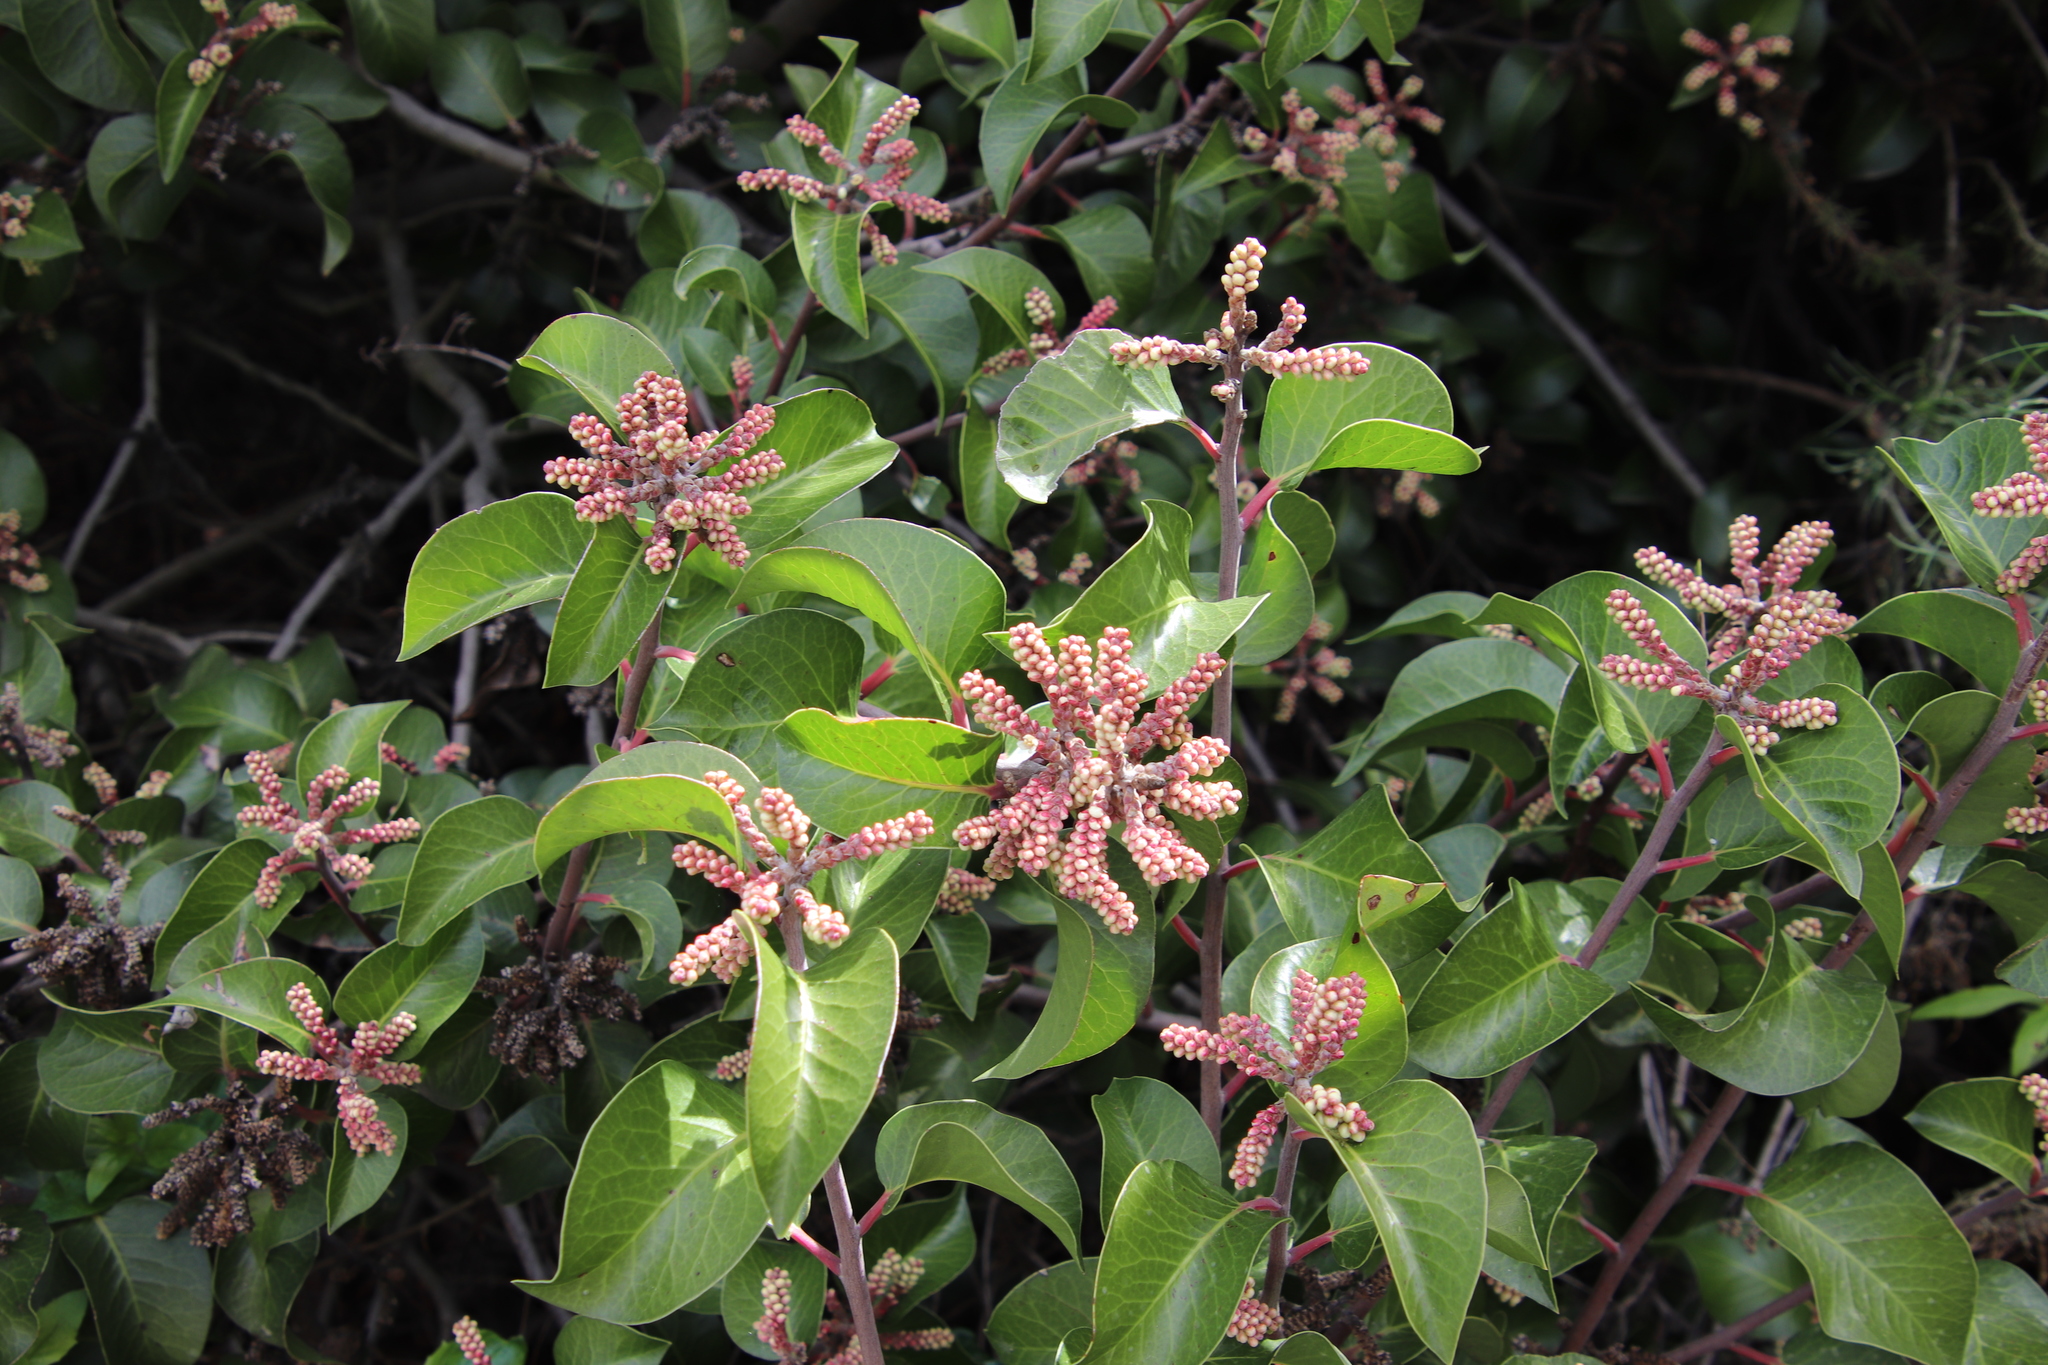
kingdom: Plantae
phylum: Tracheophyta
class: Magnoliopsida
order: Sapindales
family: Anacardiaceae
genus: Rhus
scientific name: Rhus ovata
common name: Sugar sumac
